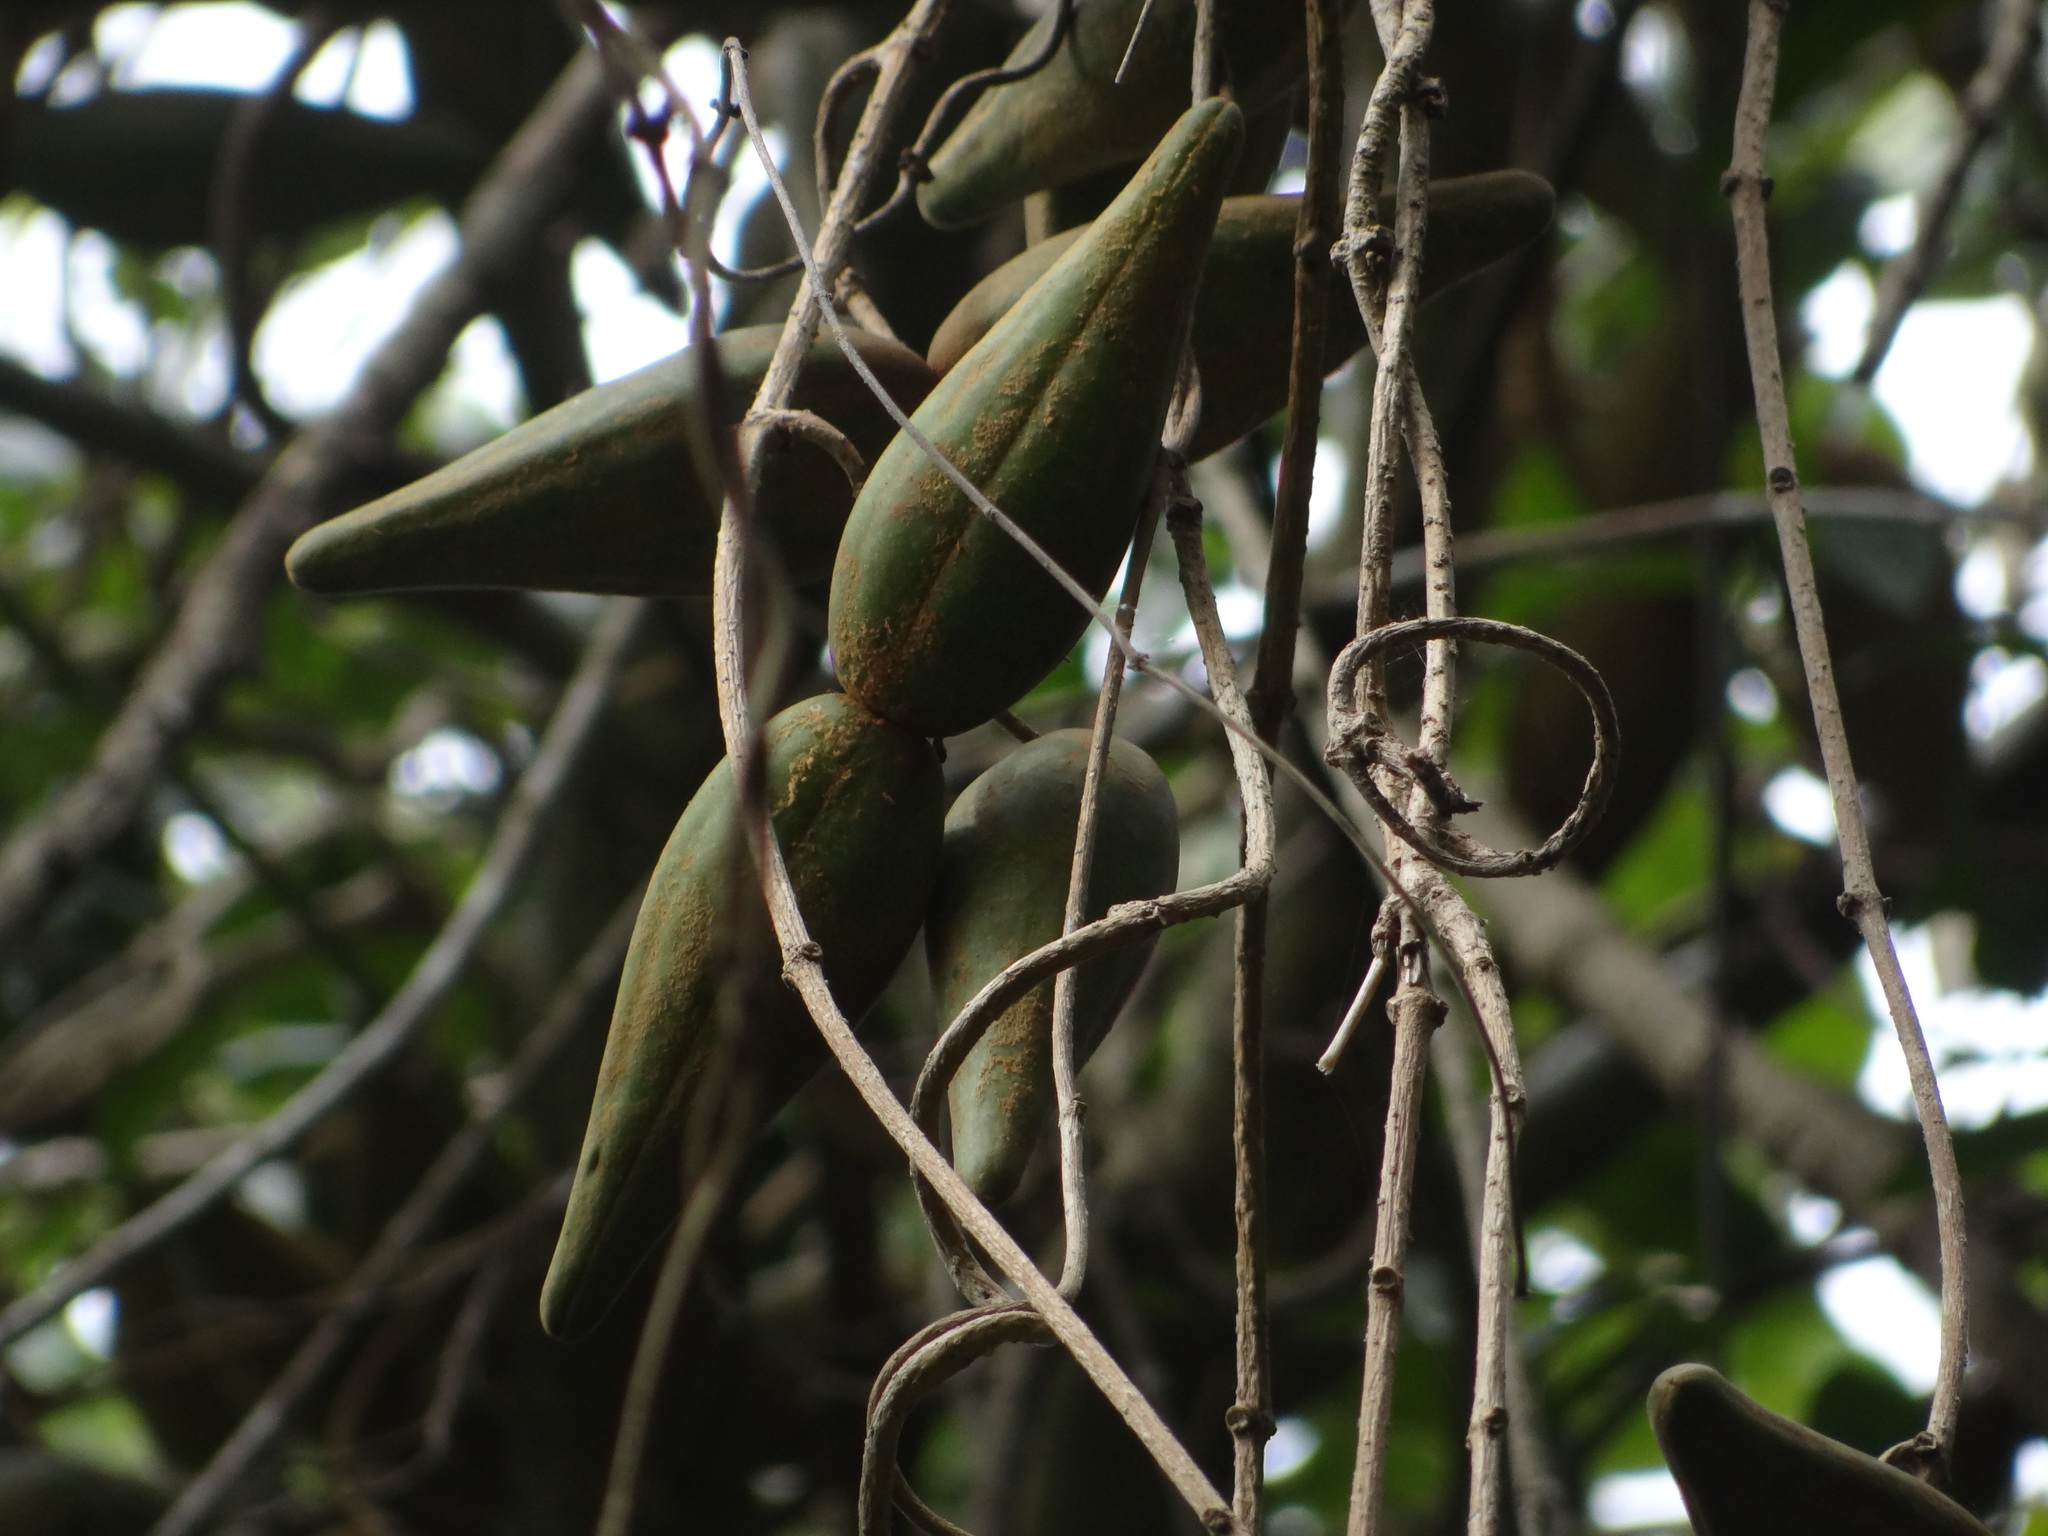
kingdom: Plantae
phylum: Tracheophyta
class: Magnoliopsida
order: Gentianales
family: Apocynaceae
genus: Stephanotis
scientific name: Stephanotis volubilis
